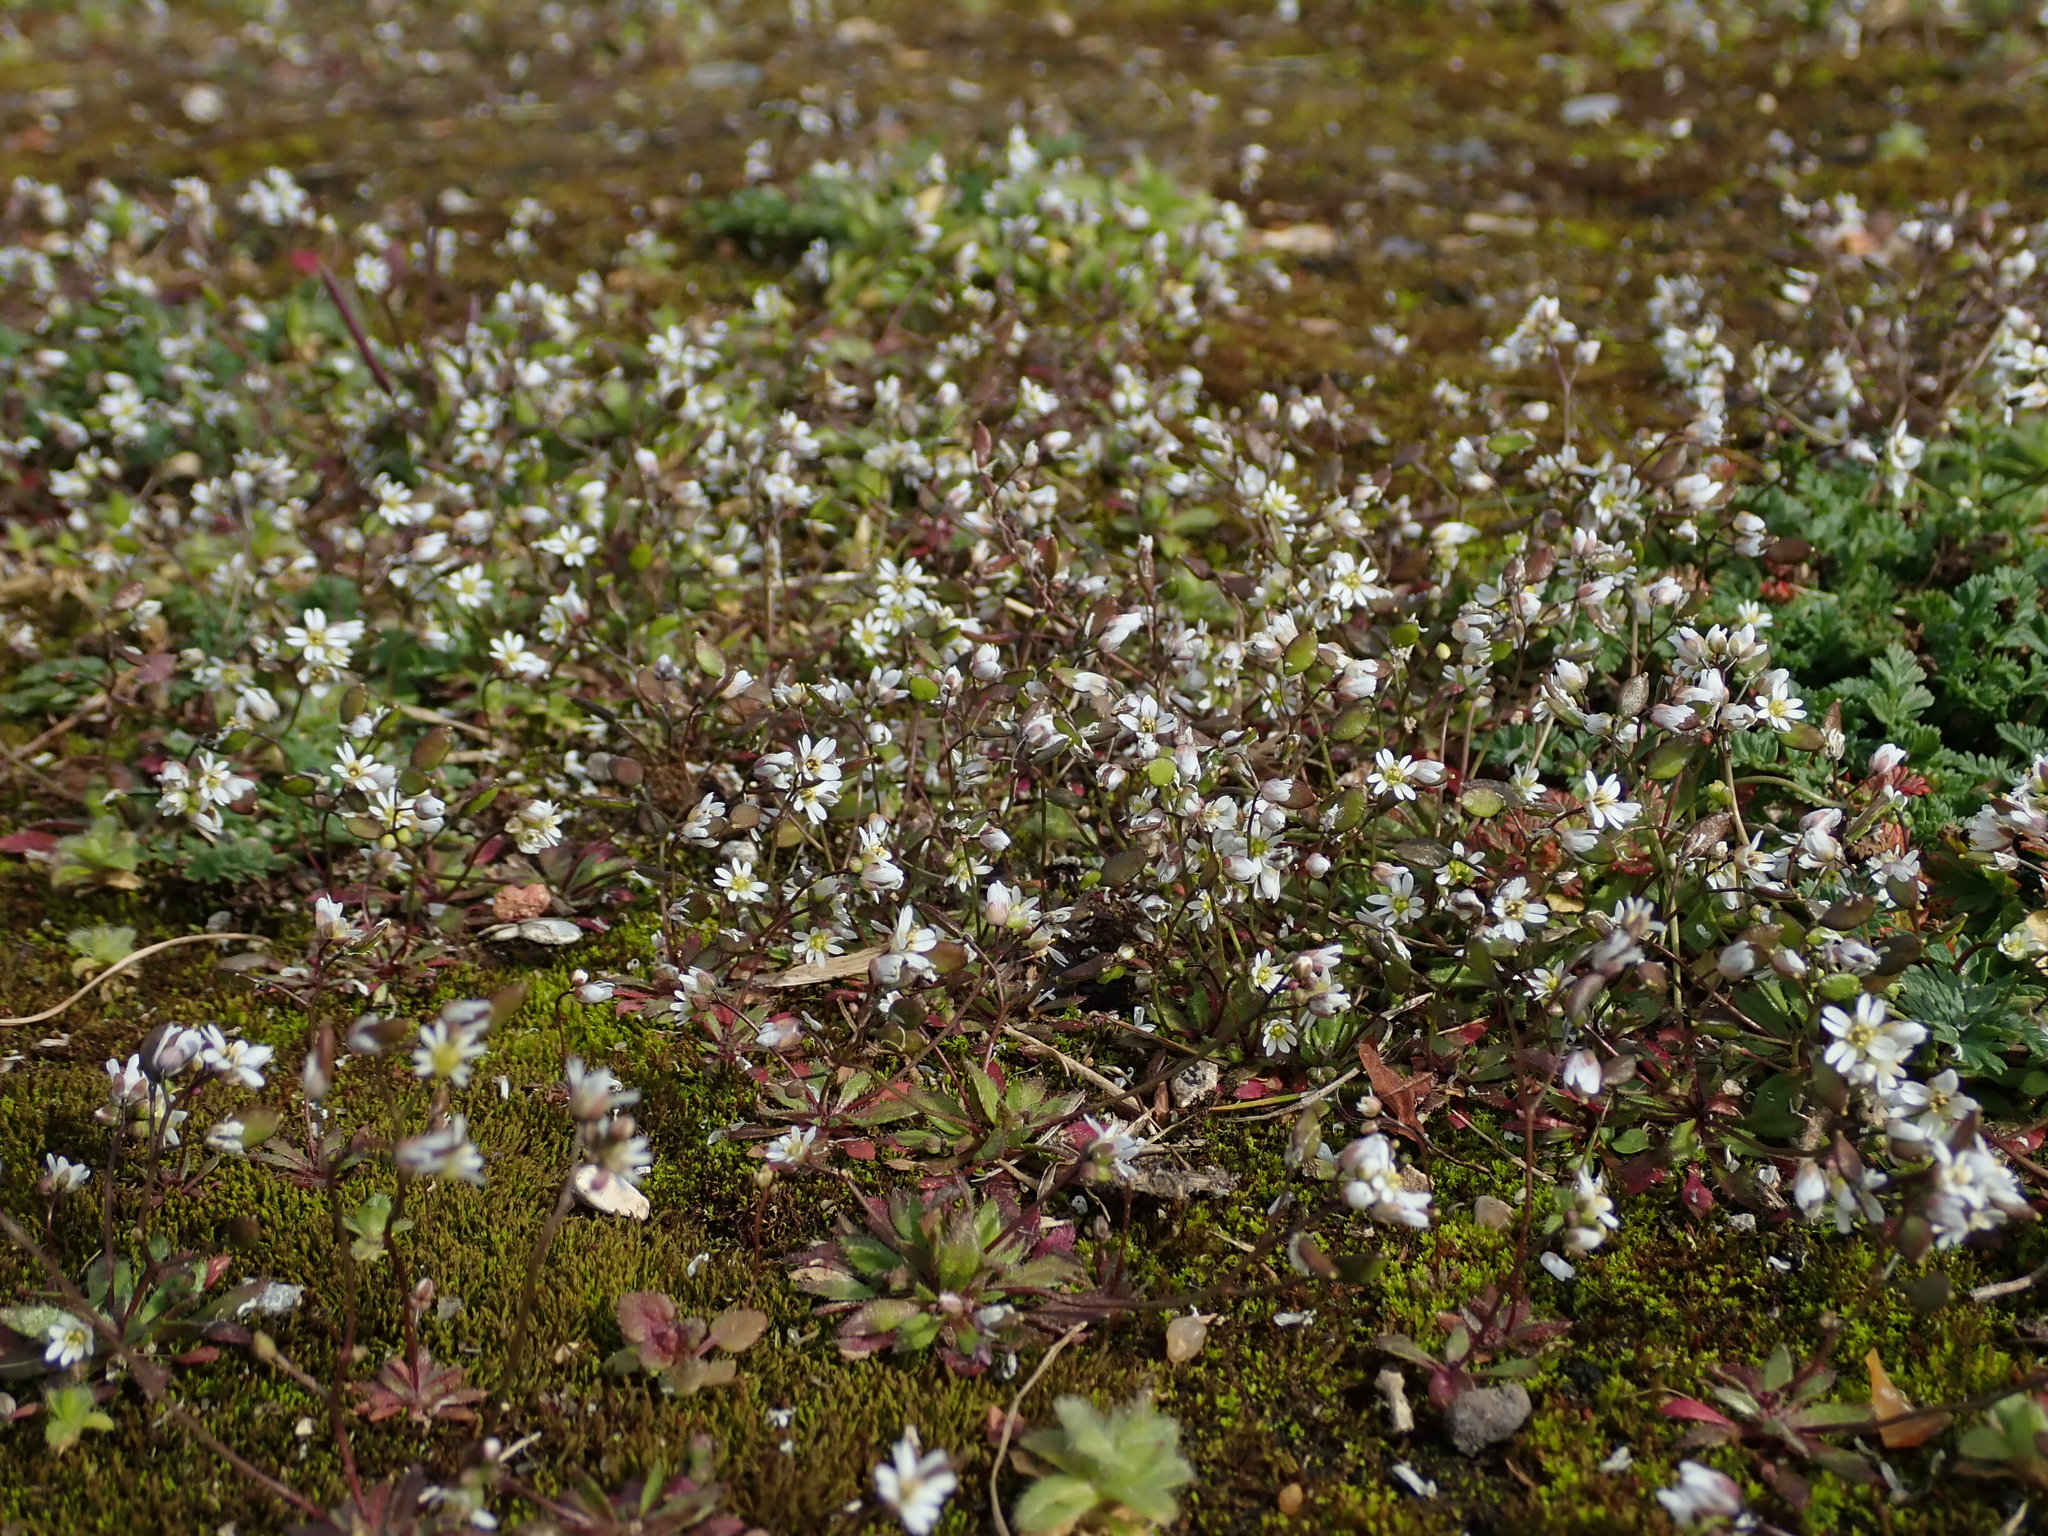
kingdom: Plantae
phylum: Tracheophyta
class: Magnoliopsida
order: Brassicales
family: Brassicaceae
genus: Draba
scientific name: Draba verna
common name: Spring draba
